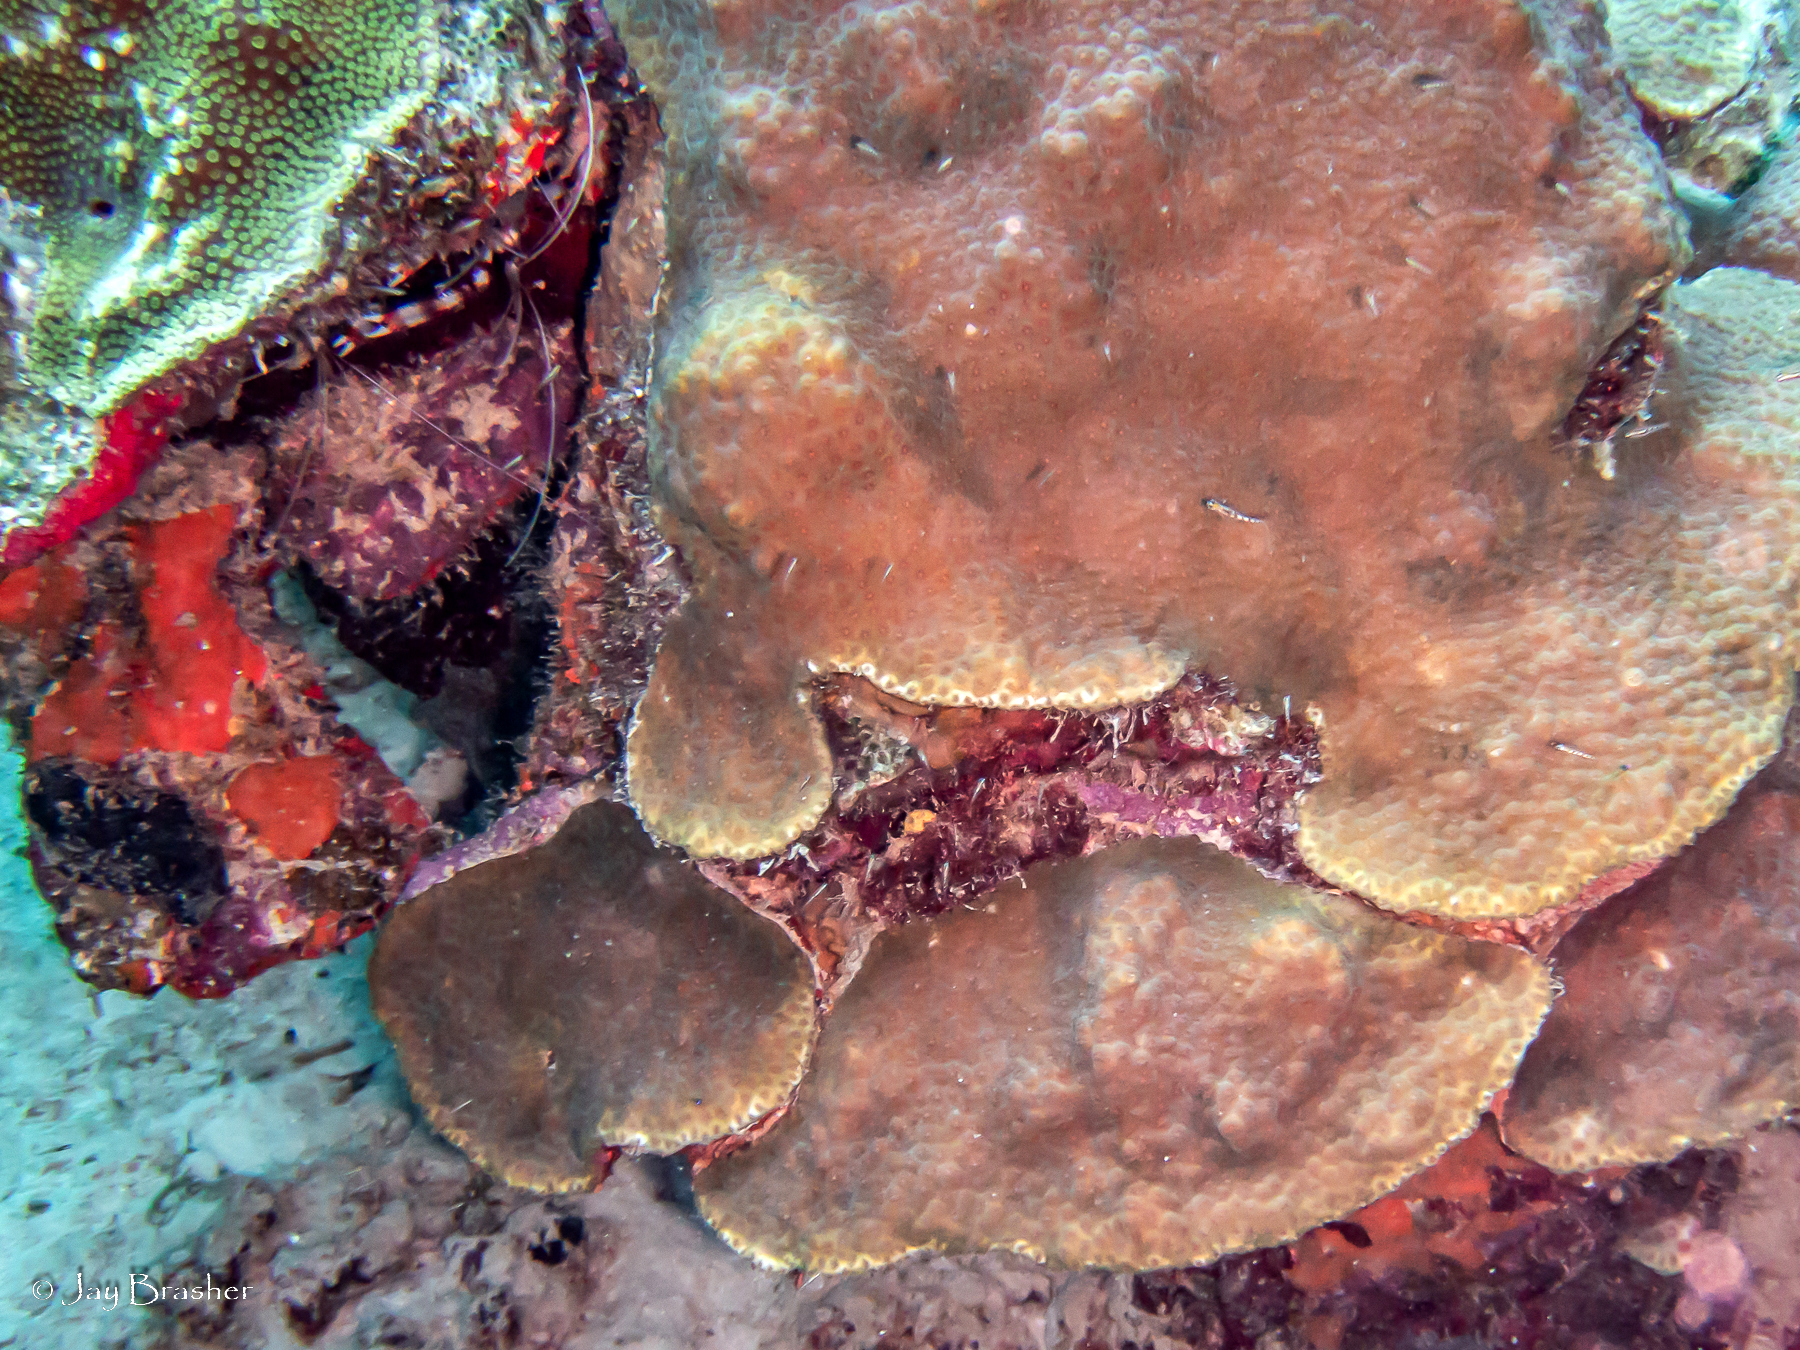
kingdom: Animalia
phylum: Arthropoda
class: Malacostraca
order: Decapoda
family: Stenopodidae
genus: Stenopus
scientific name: Stenopus hispidus
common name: Banded coral shrimp
